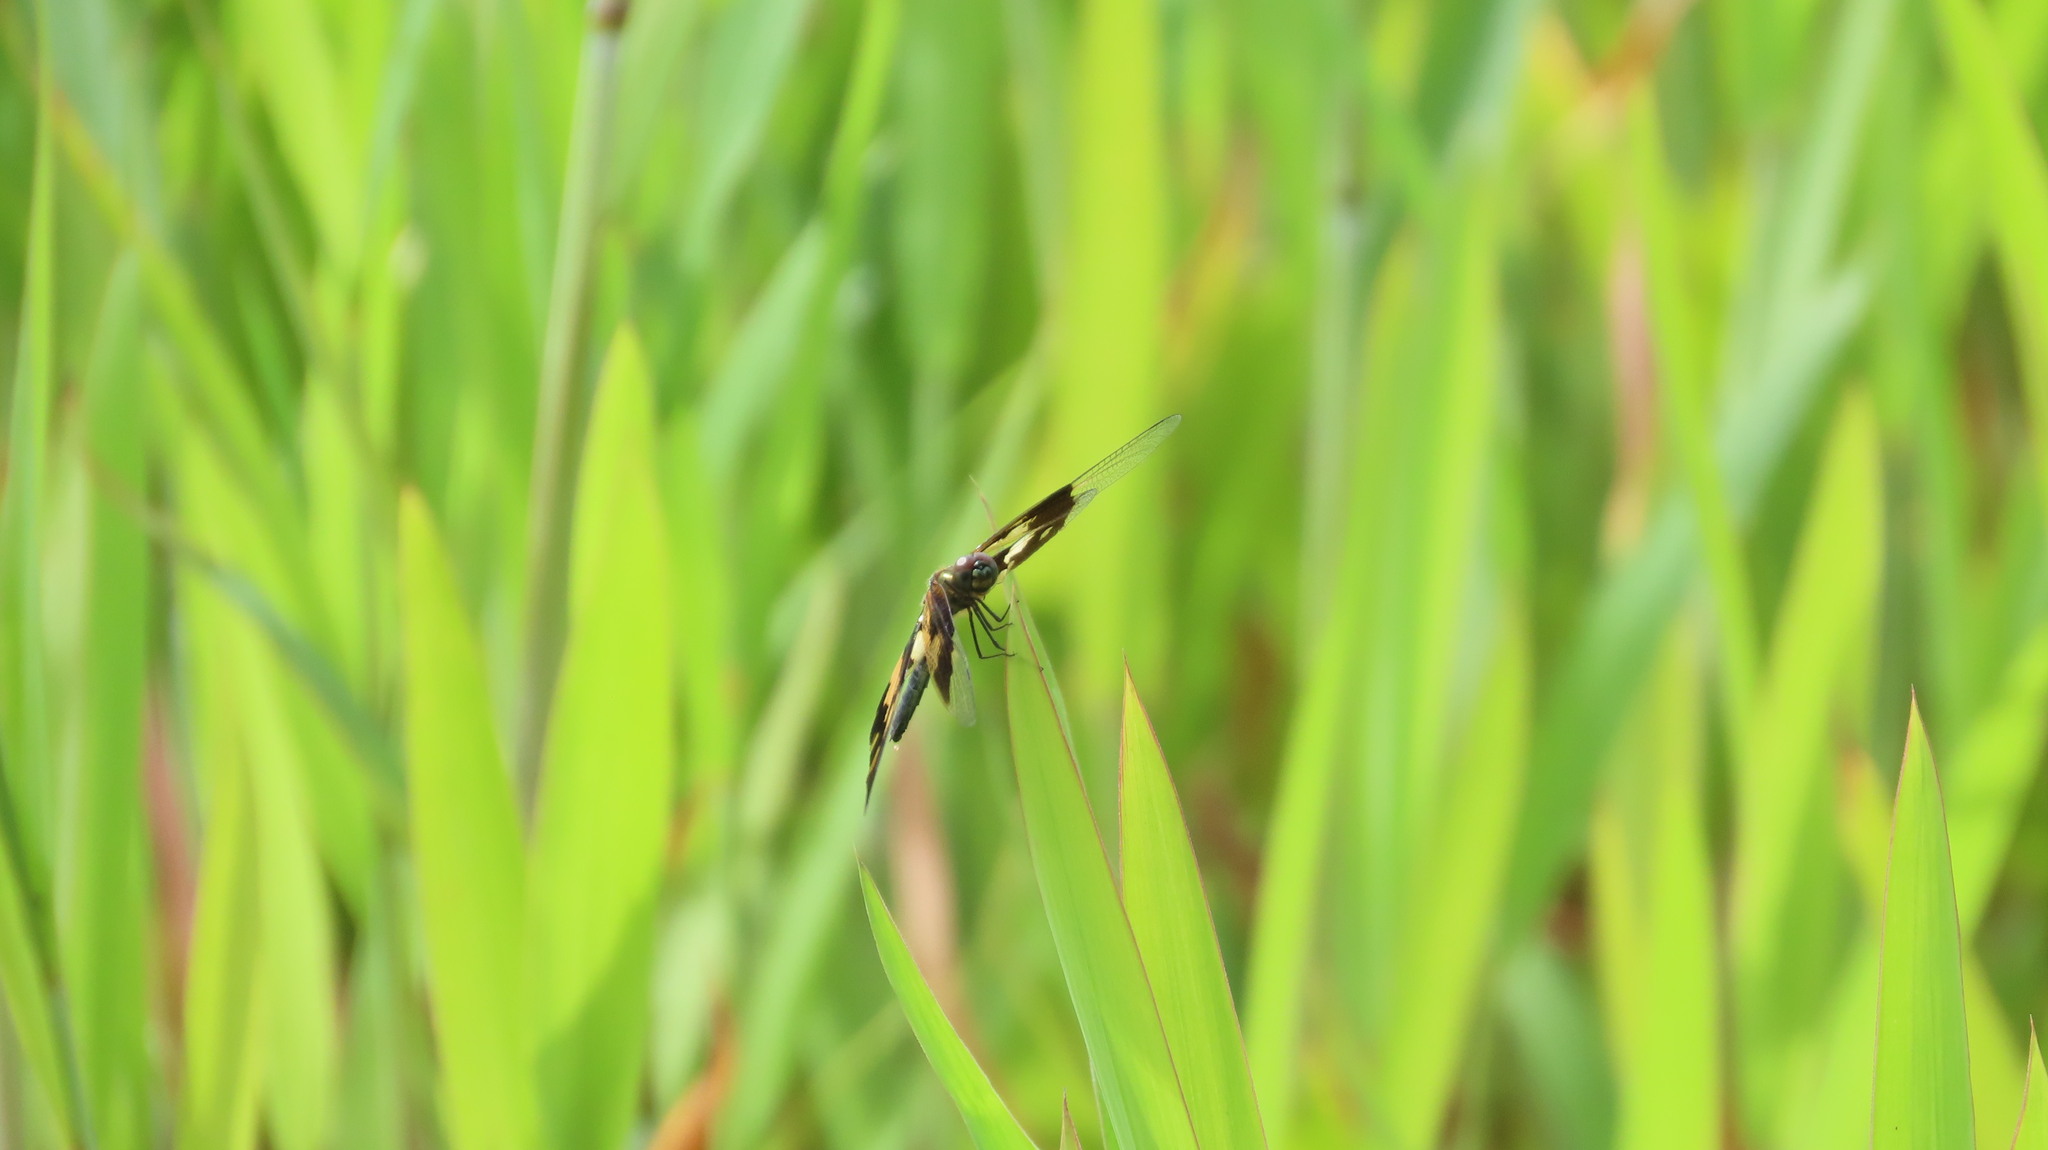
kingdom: Animalia
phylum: Arthropoda
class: Insecta
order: Odonata
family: Libellulidae
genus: Rhyothemis
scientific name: Rhyothemis variegata
